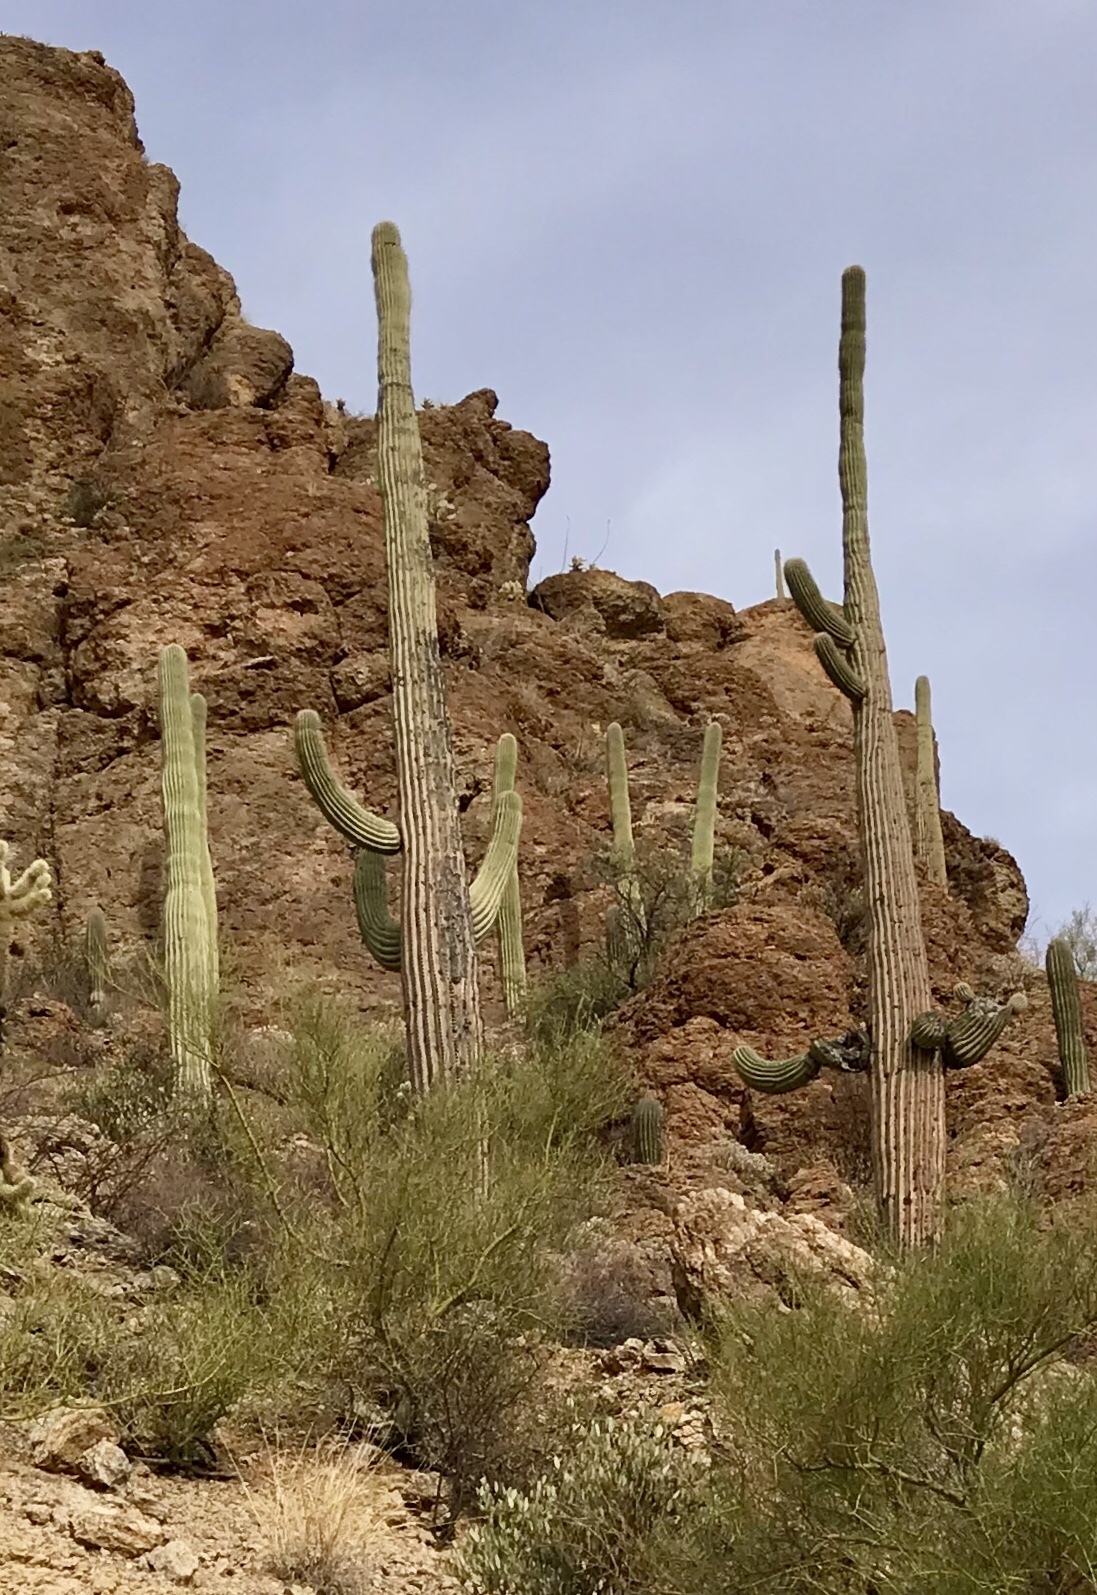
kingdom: Plantae
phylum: Tracheophyta
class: Magnoliopsida
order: Caryophyllales
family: Cactaceae
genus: Carnegiea
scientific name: Carnegiea gigantea
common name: Saguaro
